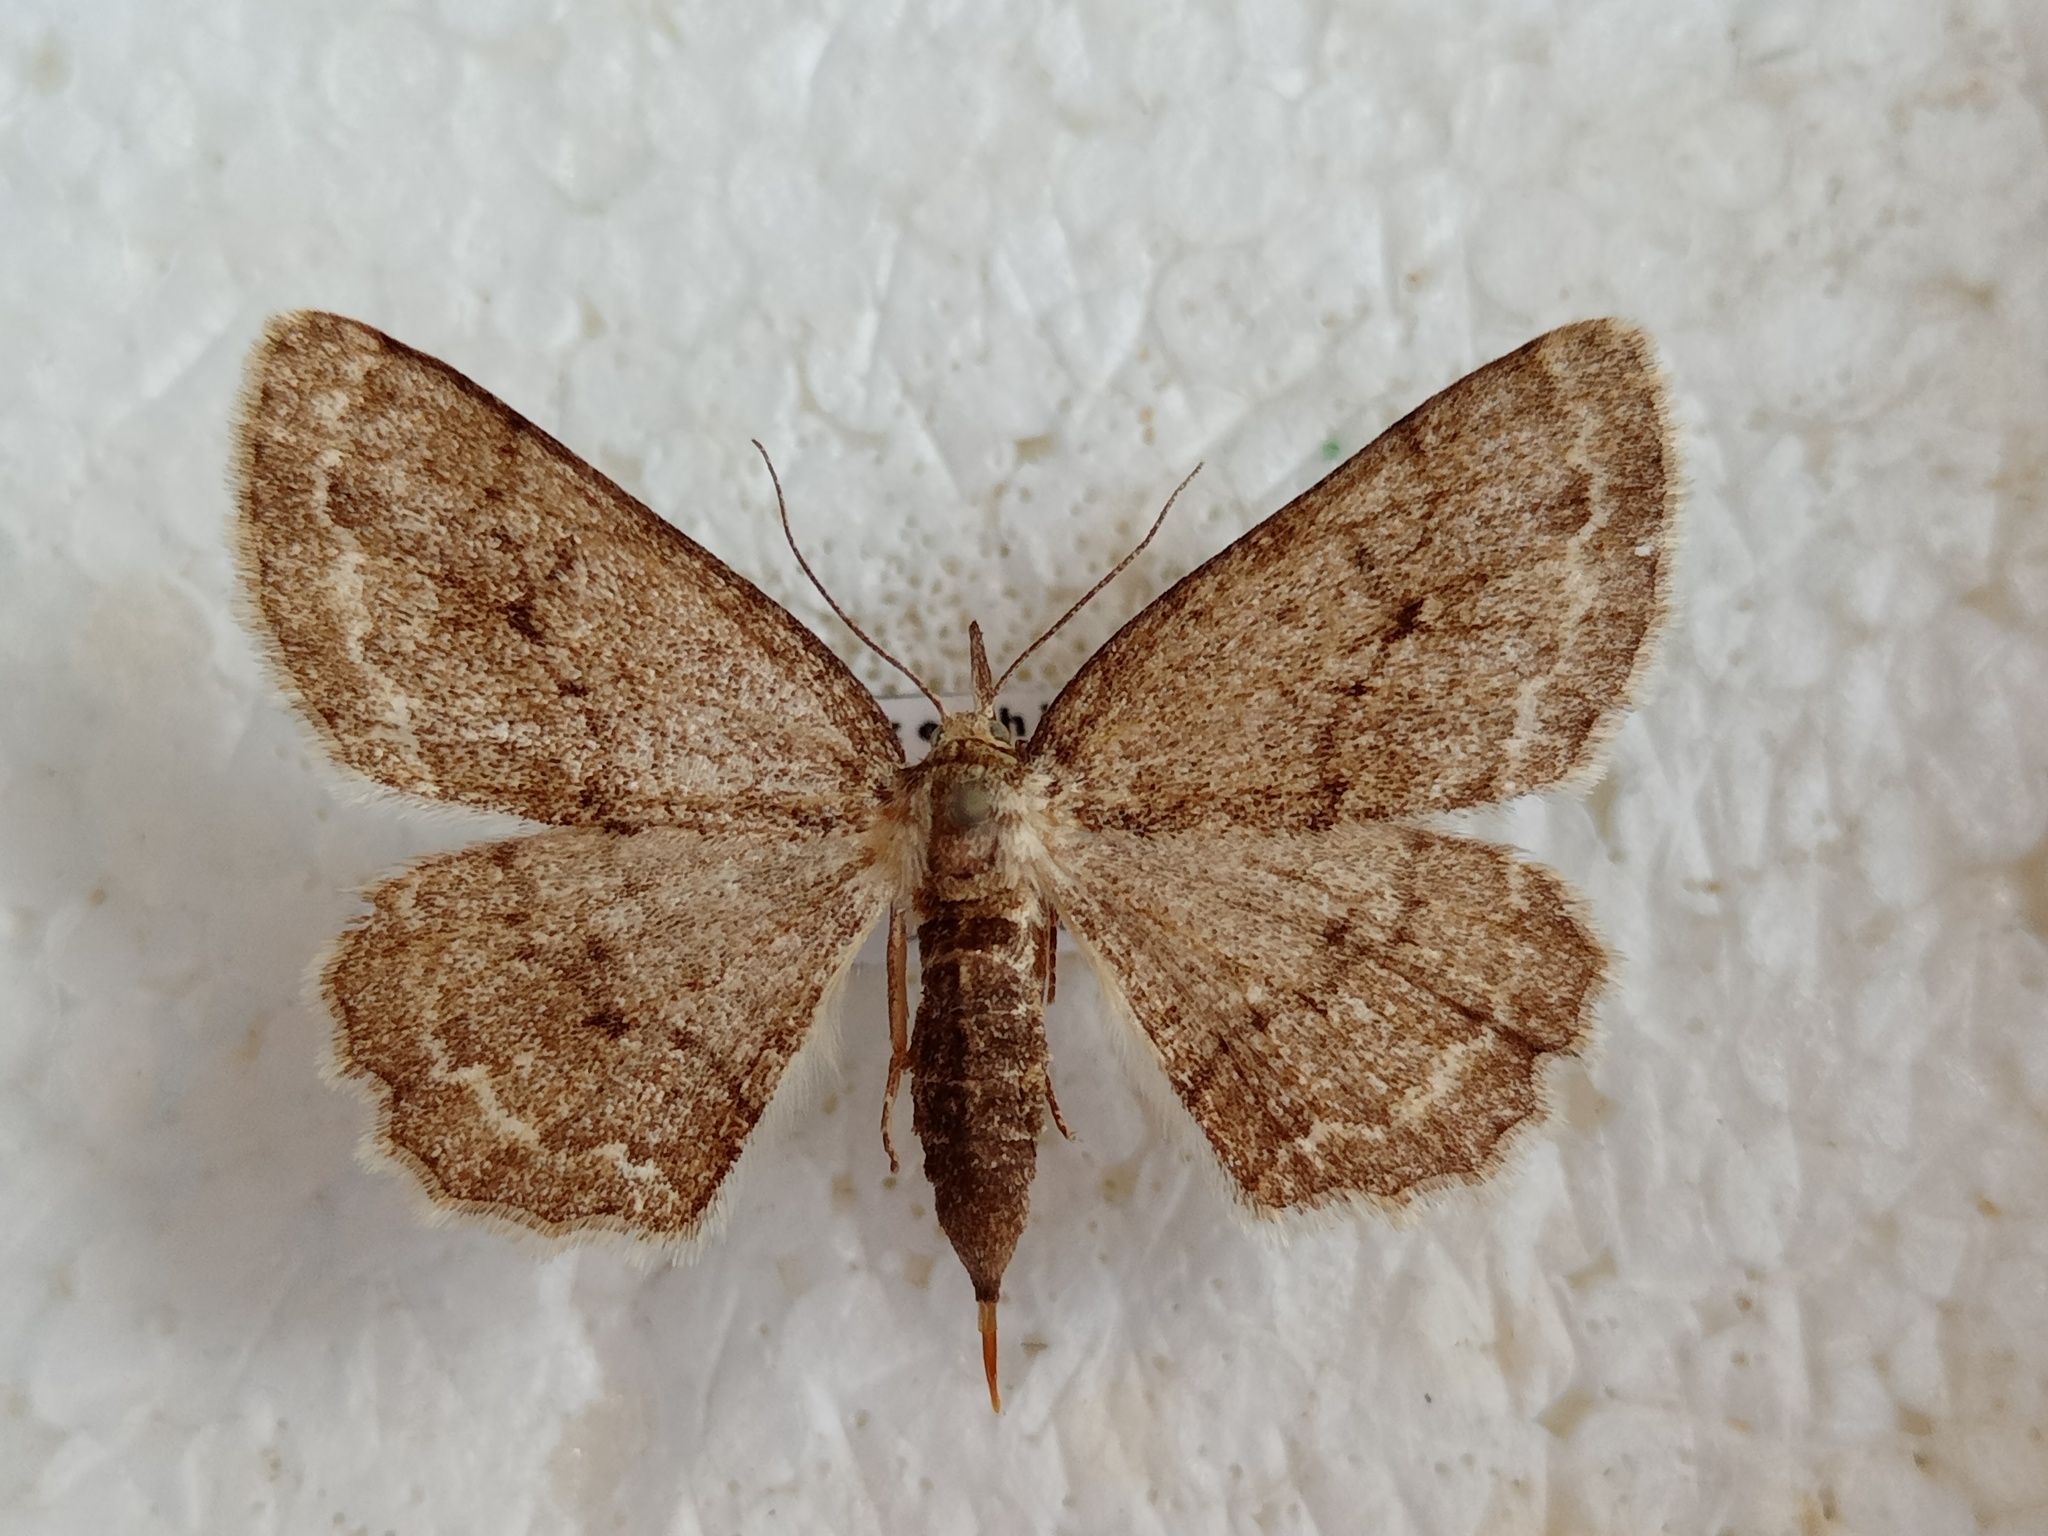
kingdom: Animalia
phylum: Arthropoda
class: Insecta
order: Lepidoptera
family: Geometridae
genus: Ectropis
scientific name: Ectropis crepuscularia
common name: Engrailed
